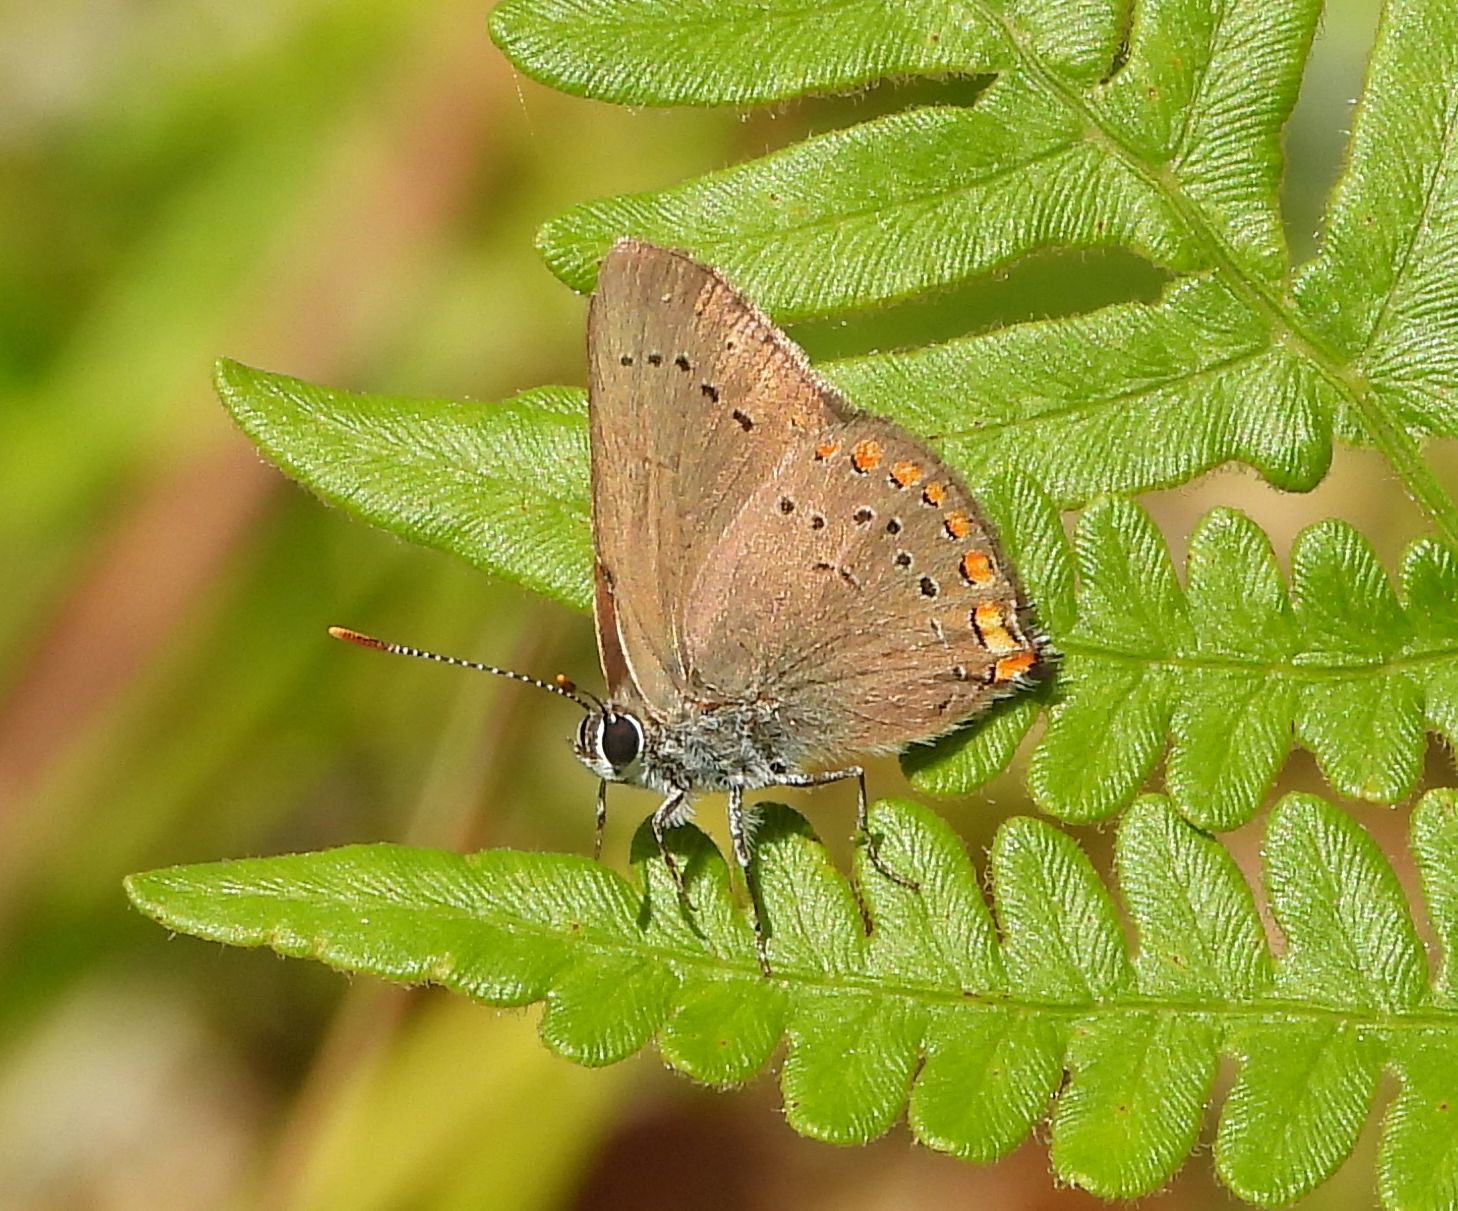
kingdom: Animalia
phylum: Arthropoda
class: Insecta
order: Lepidoptera
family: Lycaenidae
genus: Harkenclenus
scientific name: Harkenclenus titus
